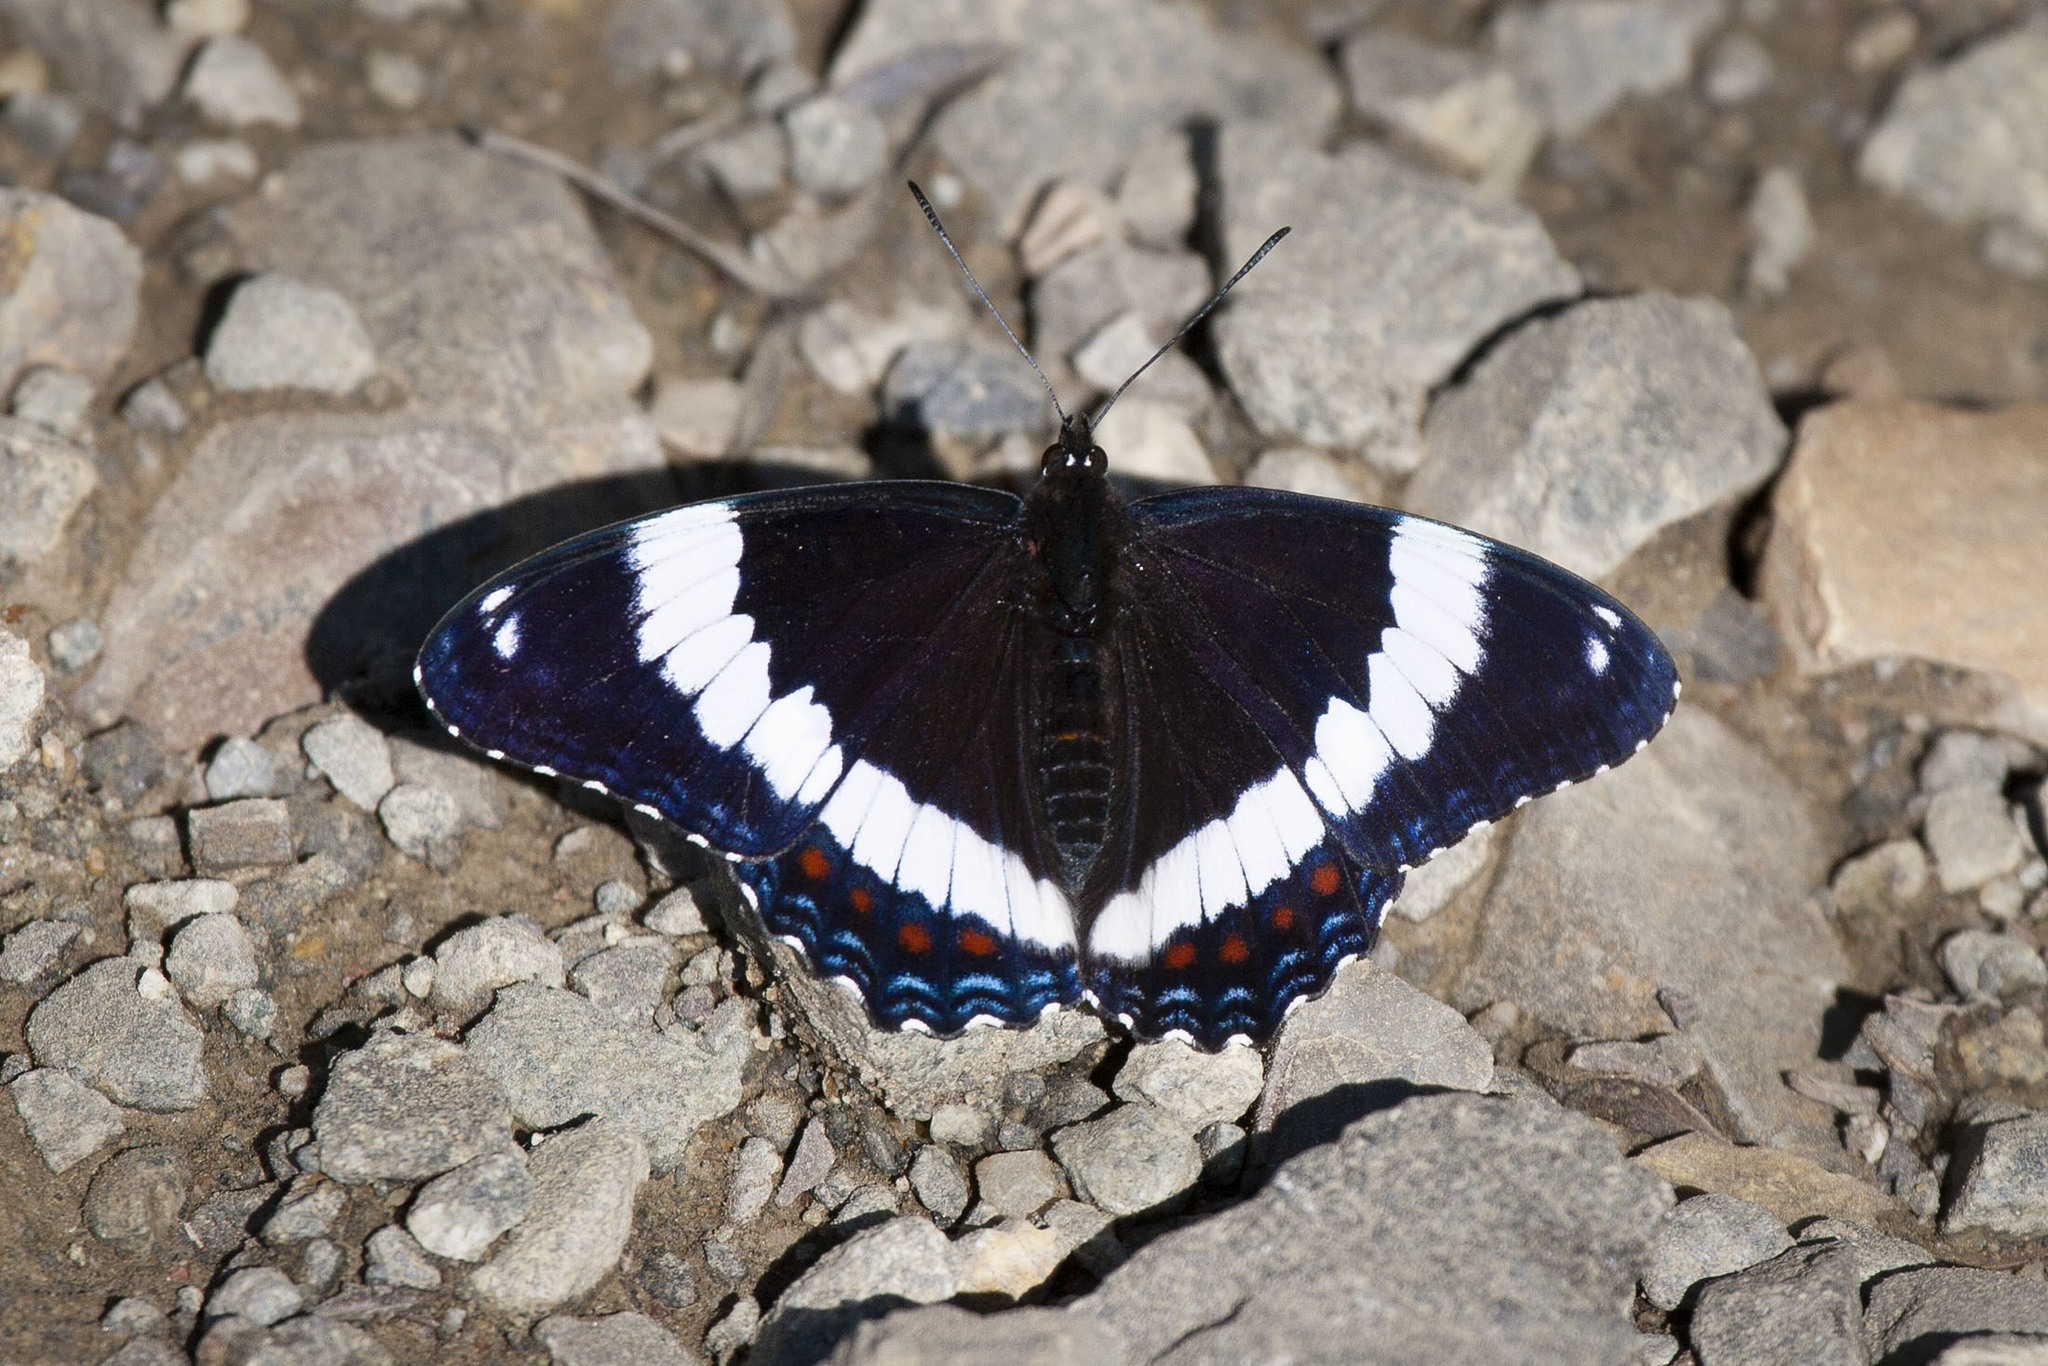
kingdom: Animalia
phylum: Arthropoda
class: Insecta
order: Lepidoptera
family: Nymphalidae
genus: Limenitis
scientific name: Limenitis arthemis
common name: Red-spotted admiral
